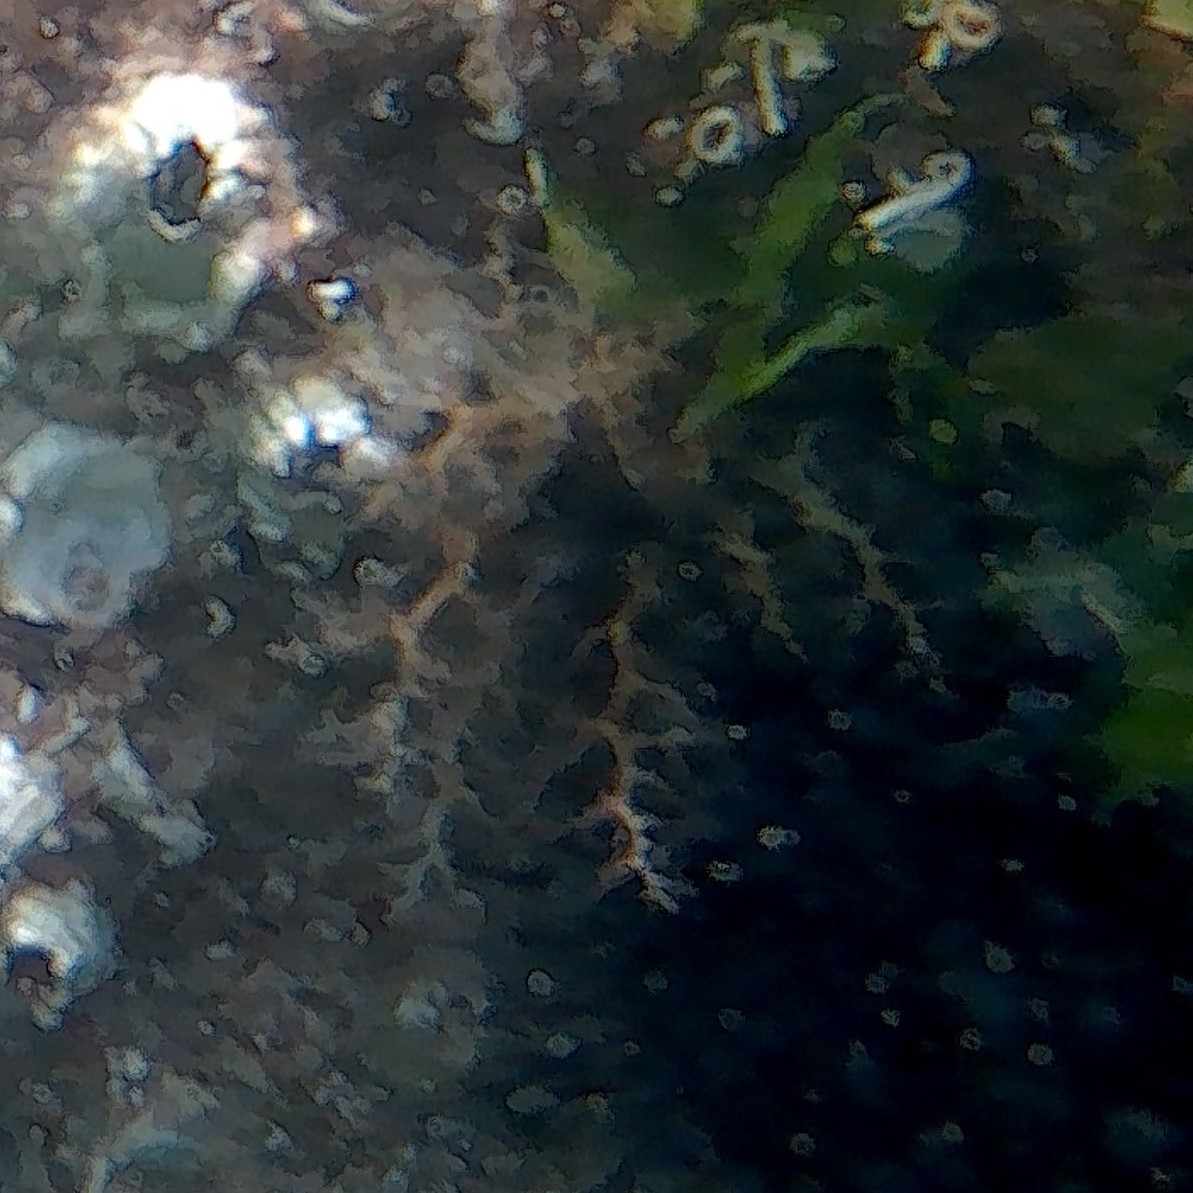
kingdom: Animalia
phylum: Echinodermata
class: Holothuroidea
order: Dendrochirotida
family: Cucumariidae
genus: Ocnus
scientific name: Ocnus planci
